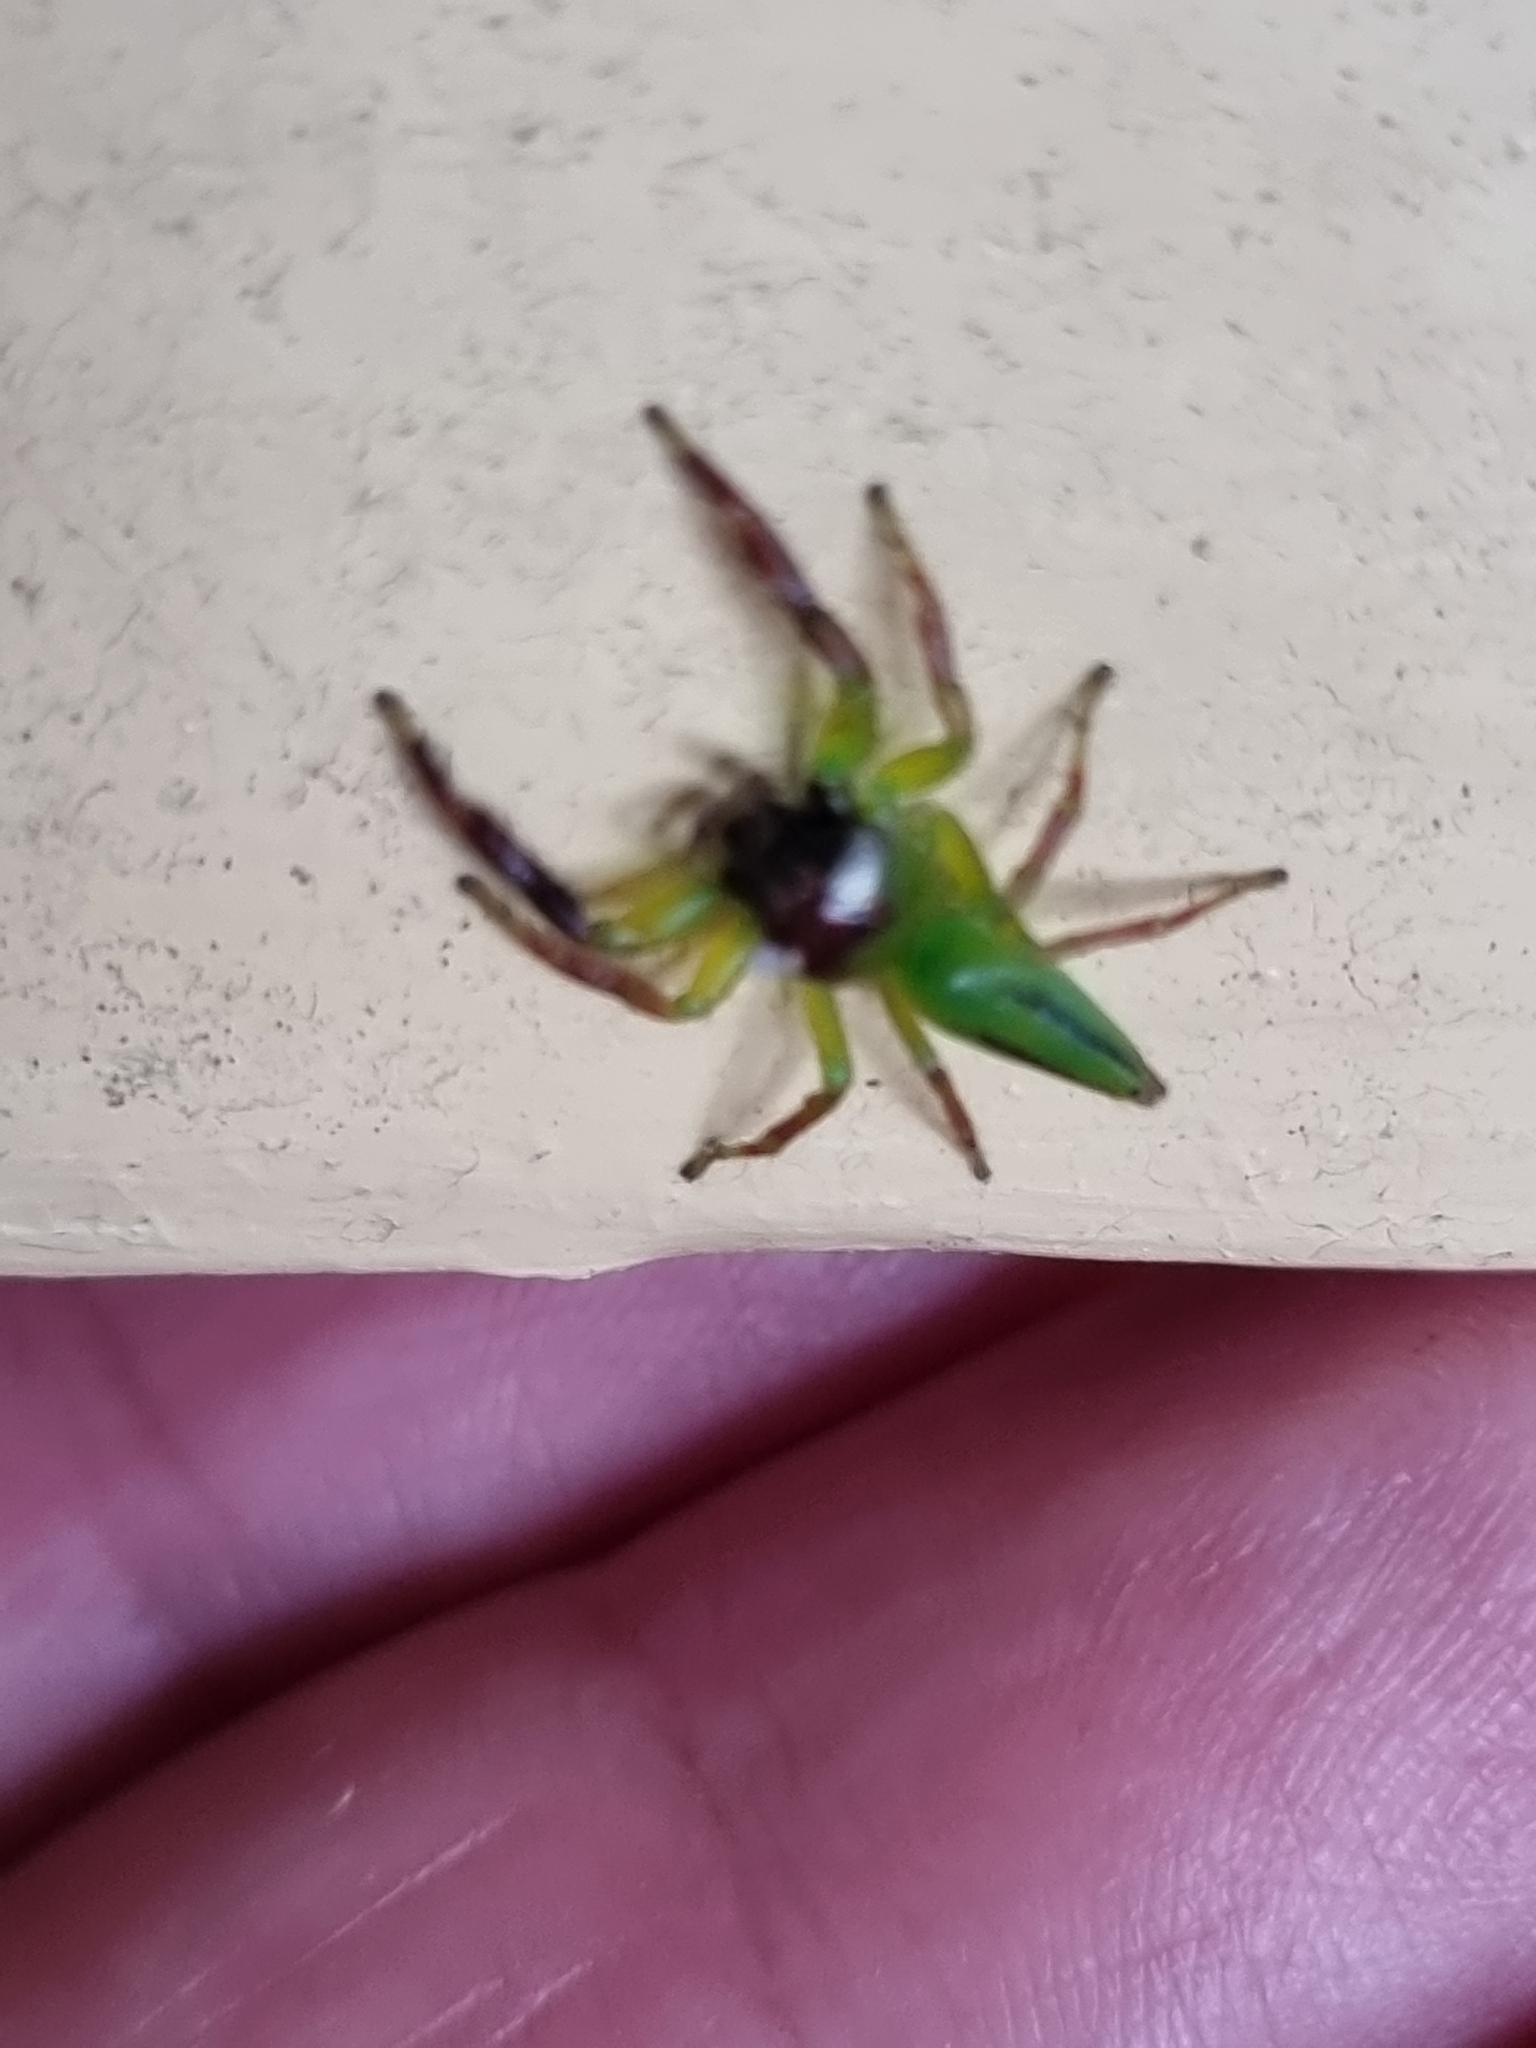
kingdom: Animalia
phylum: Arthropoda
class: Arachnida
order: Araneae
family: Salticidae
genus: Mopsus
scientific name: Mopsus mormon
